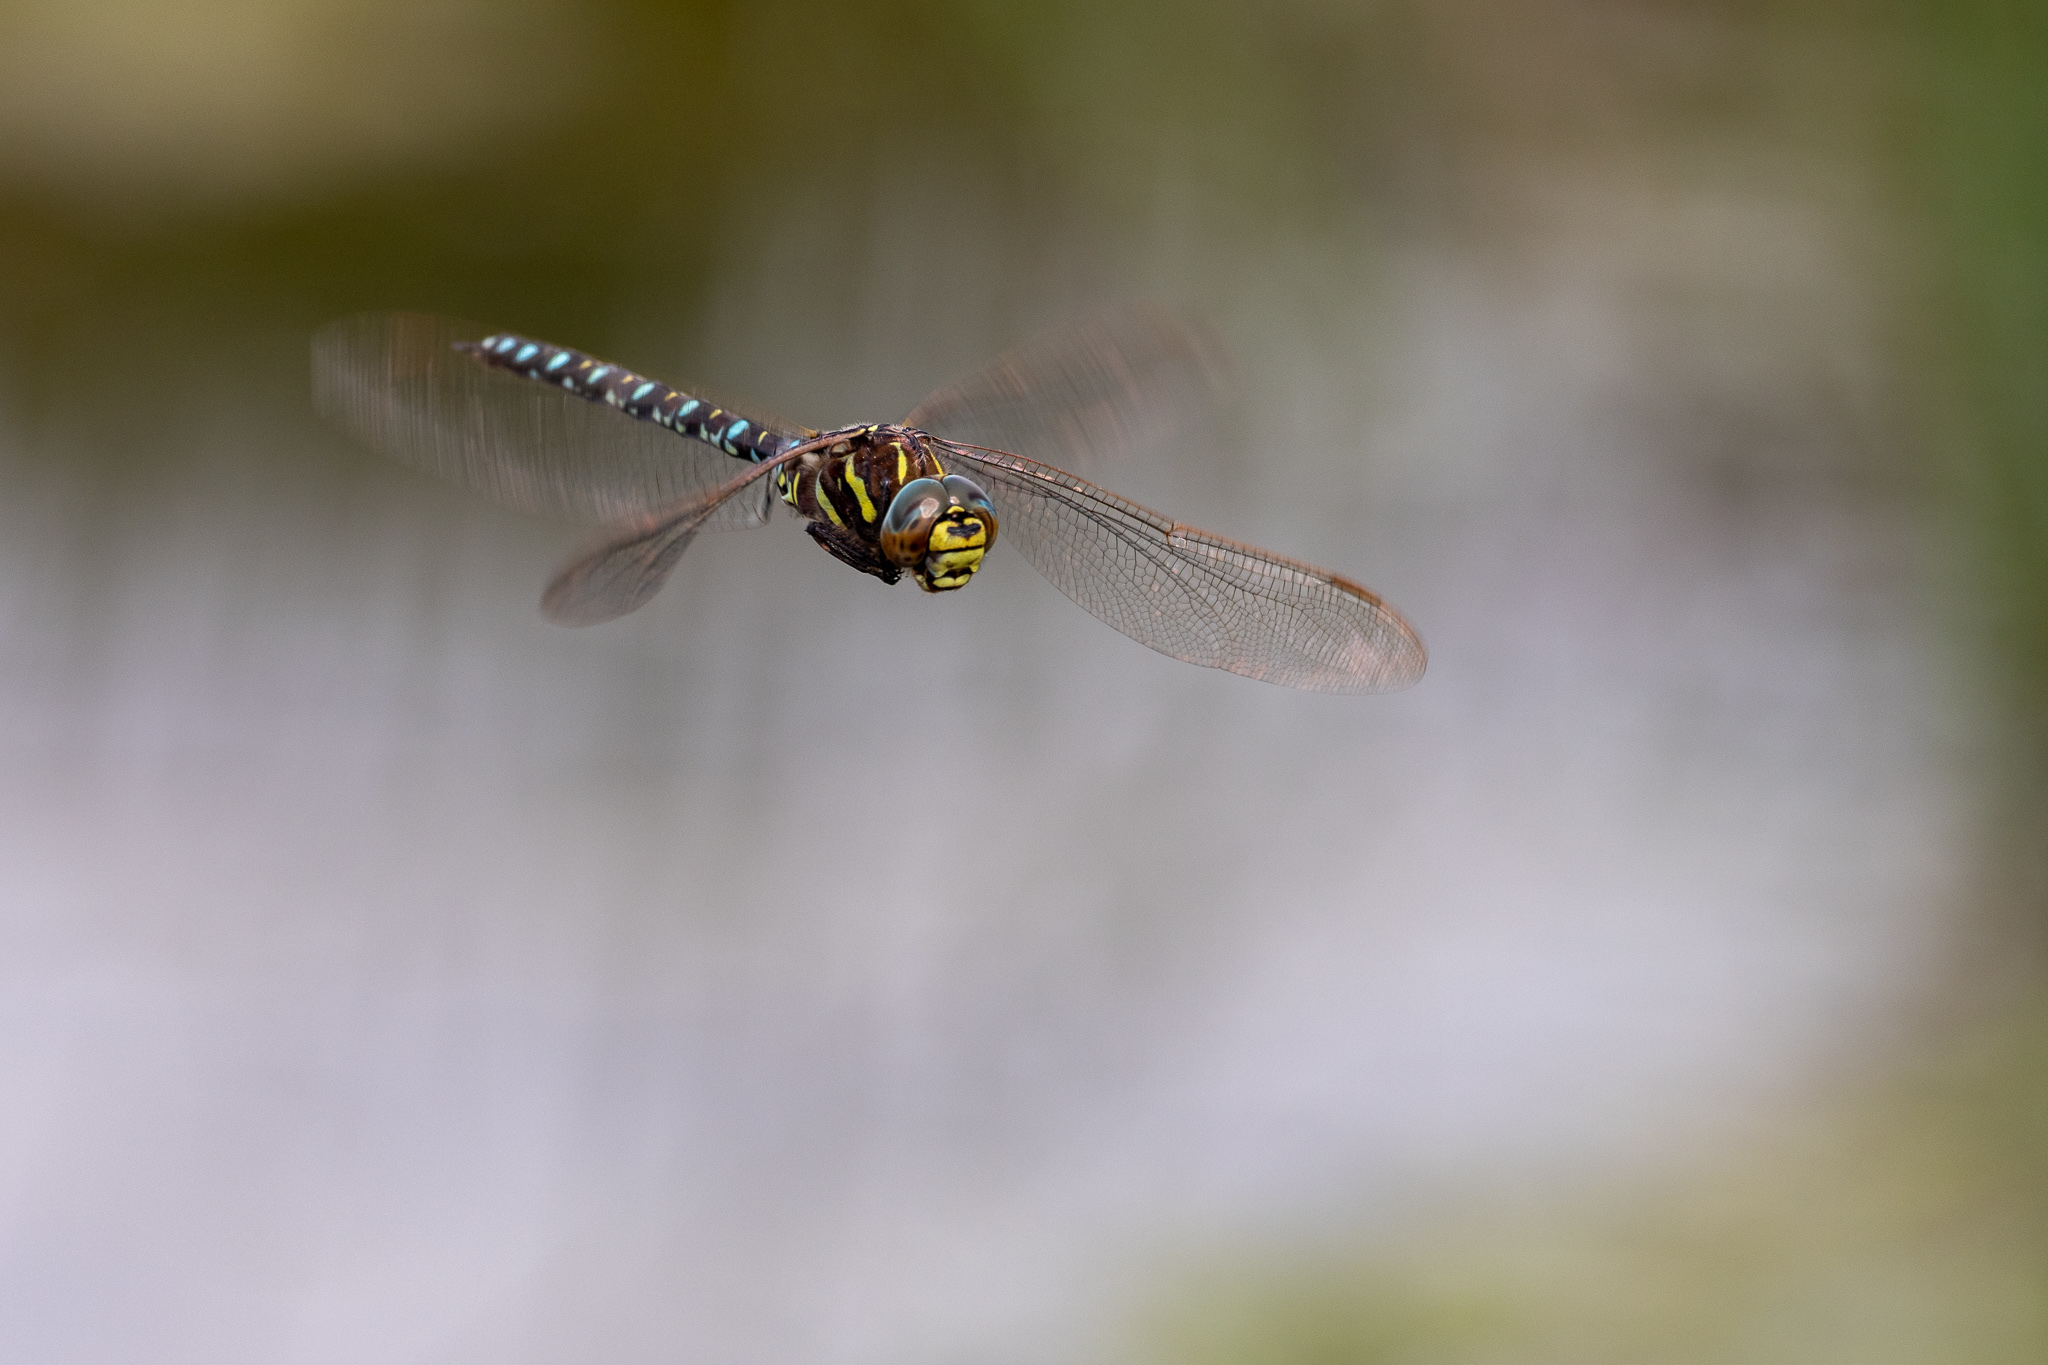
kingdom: Animalia
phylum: Arthropoda
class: Insecta
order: Odonata
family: Aeshnidae
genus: Aeshna
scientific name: Aeshna juncea
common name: Moorland hawker
